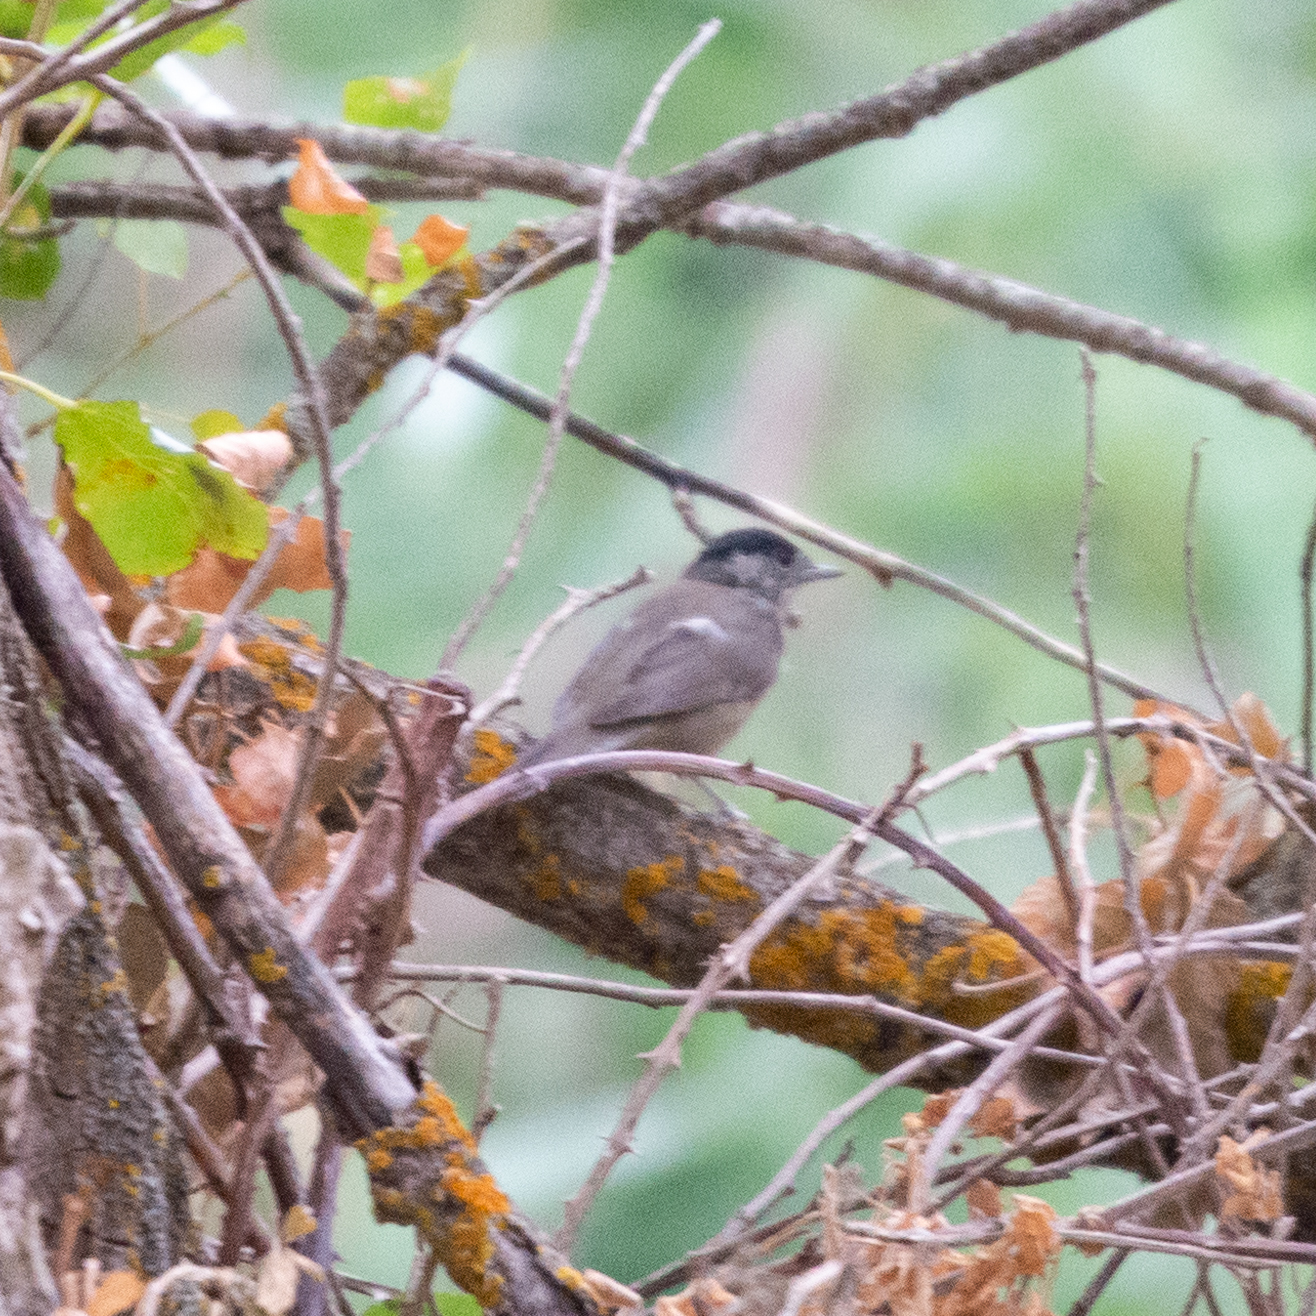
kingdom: Animalia
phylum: Chordata
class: Aves
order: Passeriformes
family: Sylviidae
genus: Sylvia
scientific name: Sylvia atricapilla
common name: Eurasian blackcap
